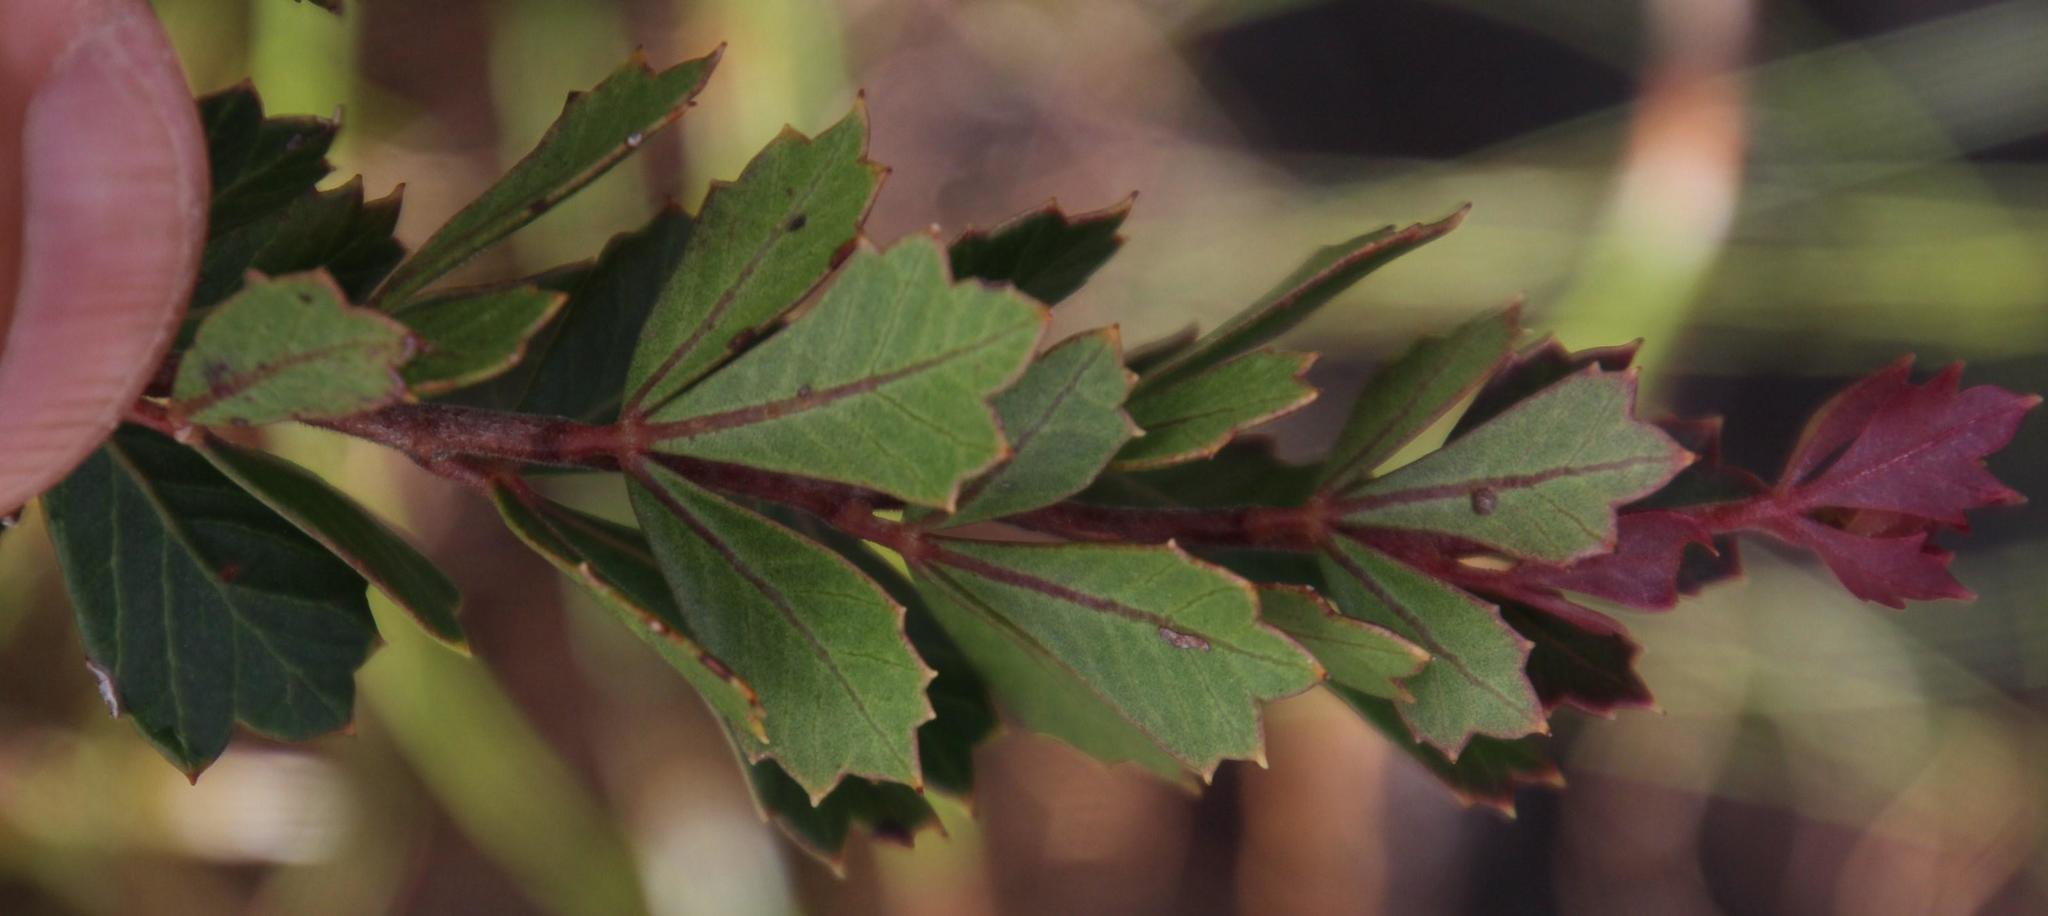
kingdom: Plantae
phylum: Tracheophyta
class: Magnoliopsida
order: Sapindales
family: Anacardiaceae
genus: Searsia
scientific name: Searsia cuneifolia
